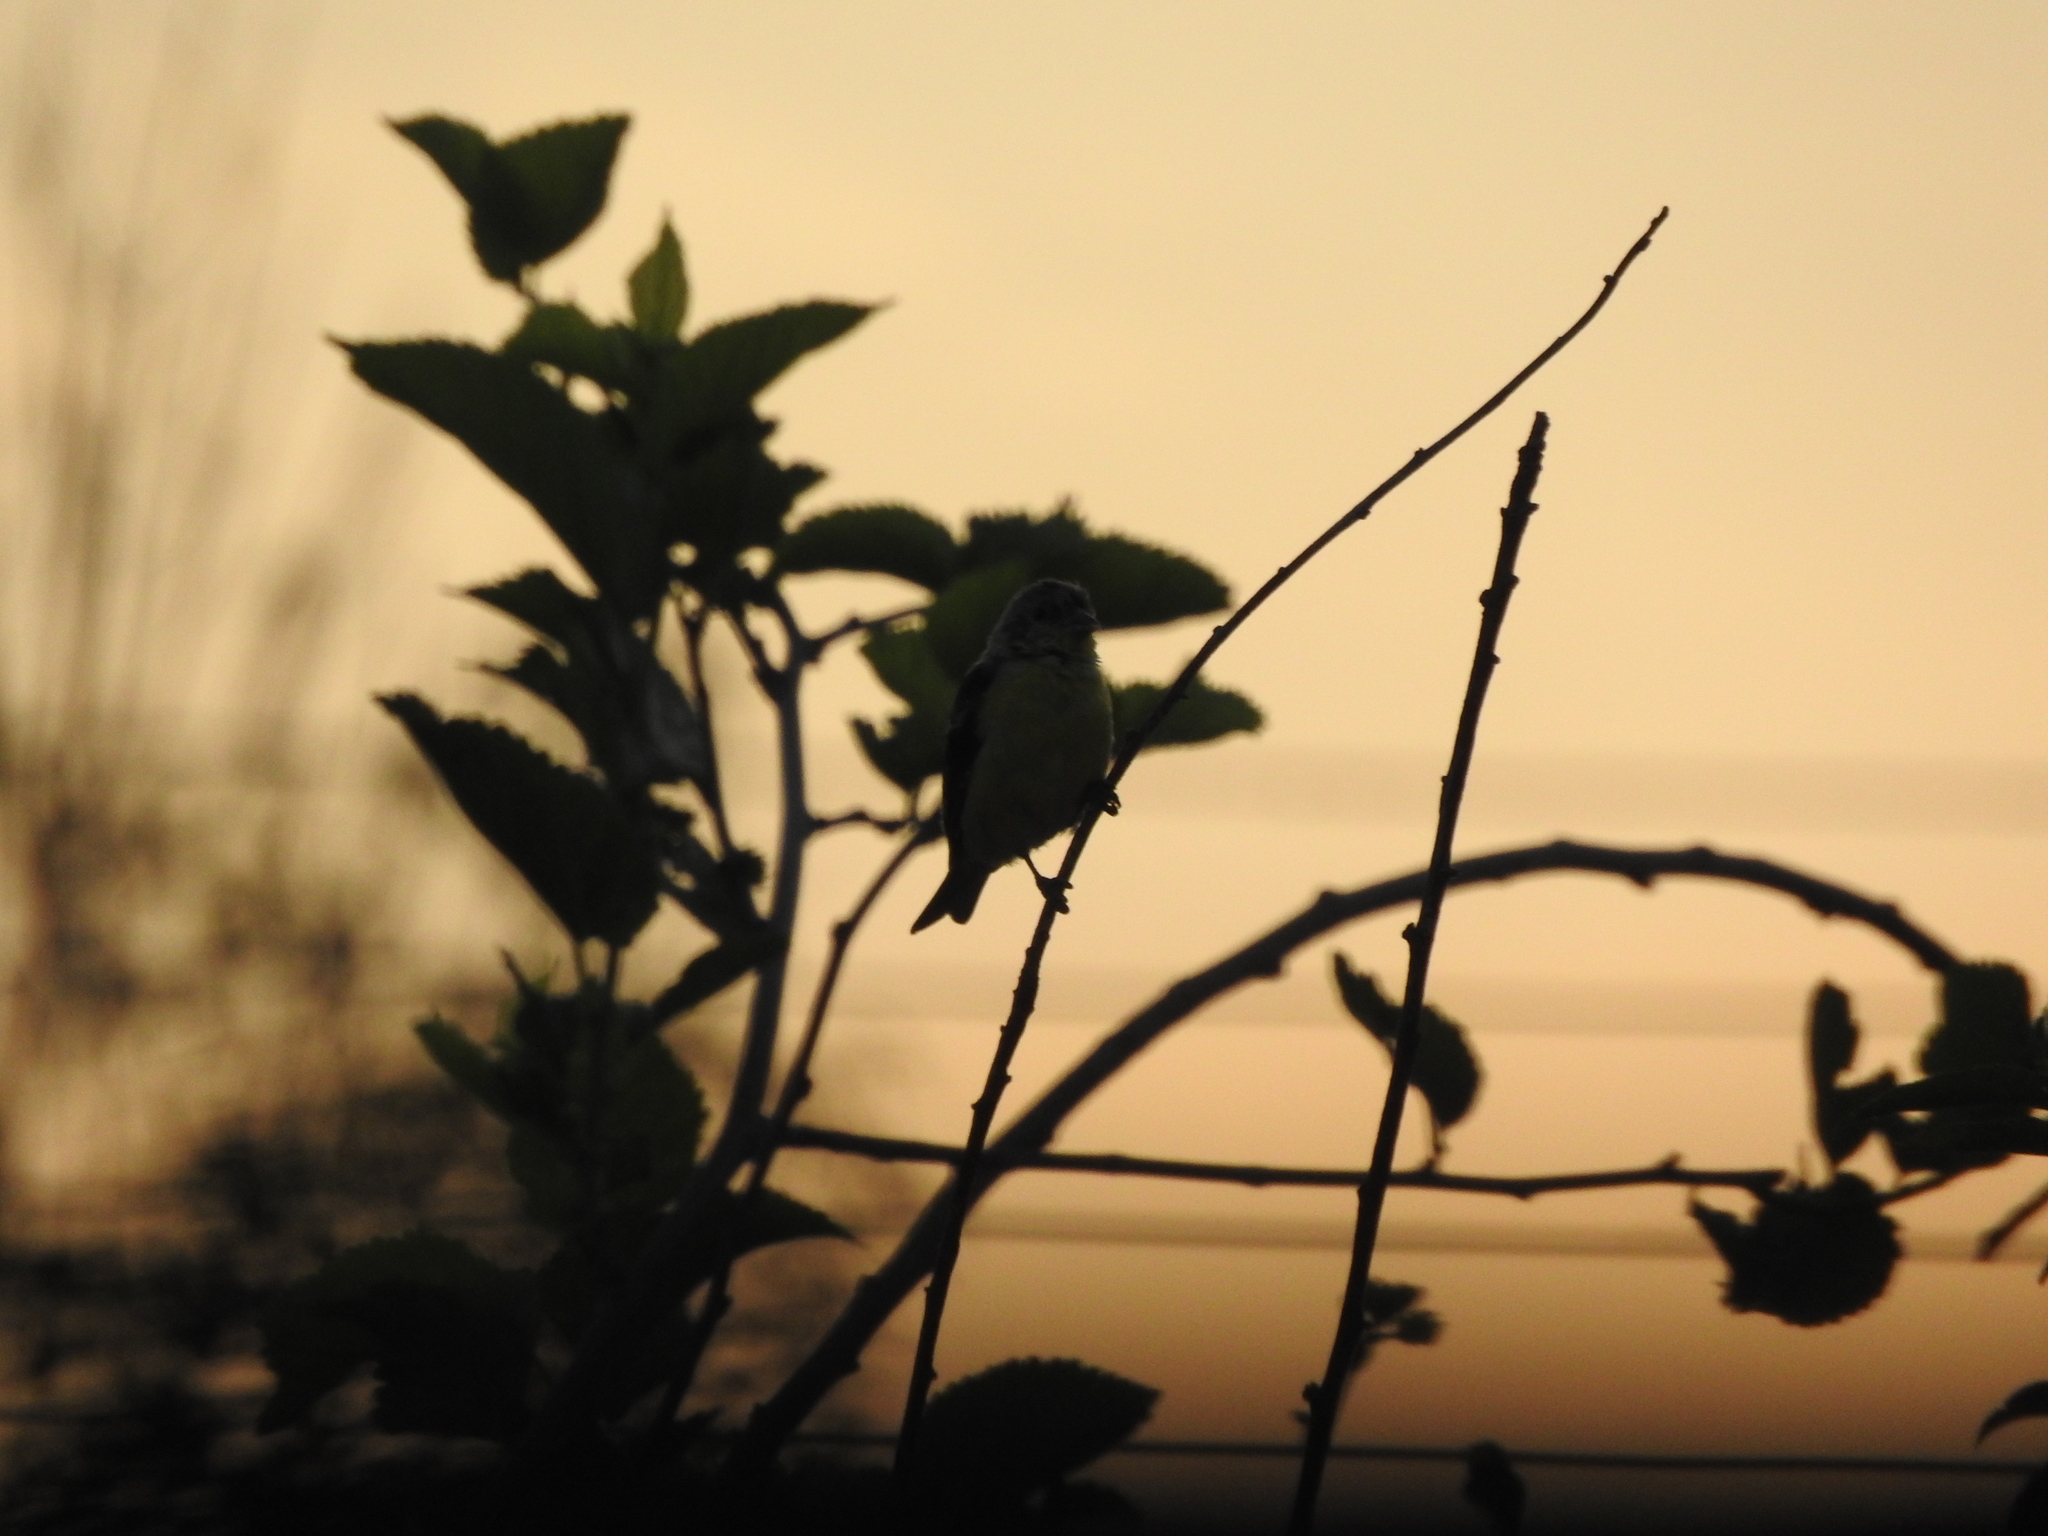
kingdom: Animalia
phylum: Chordata
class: Aves
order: Passeriformes
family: Fringillidae
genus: Spinus
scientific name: Spinus psaltria
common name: Lesser goldfinch
